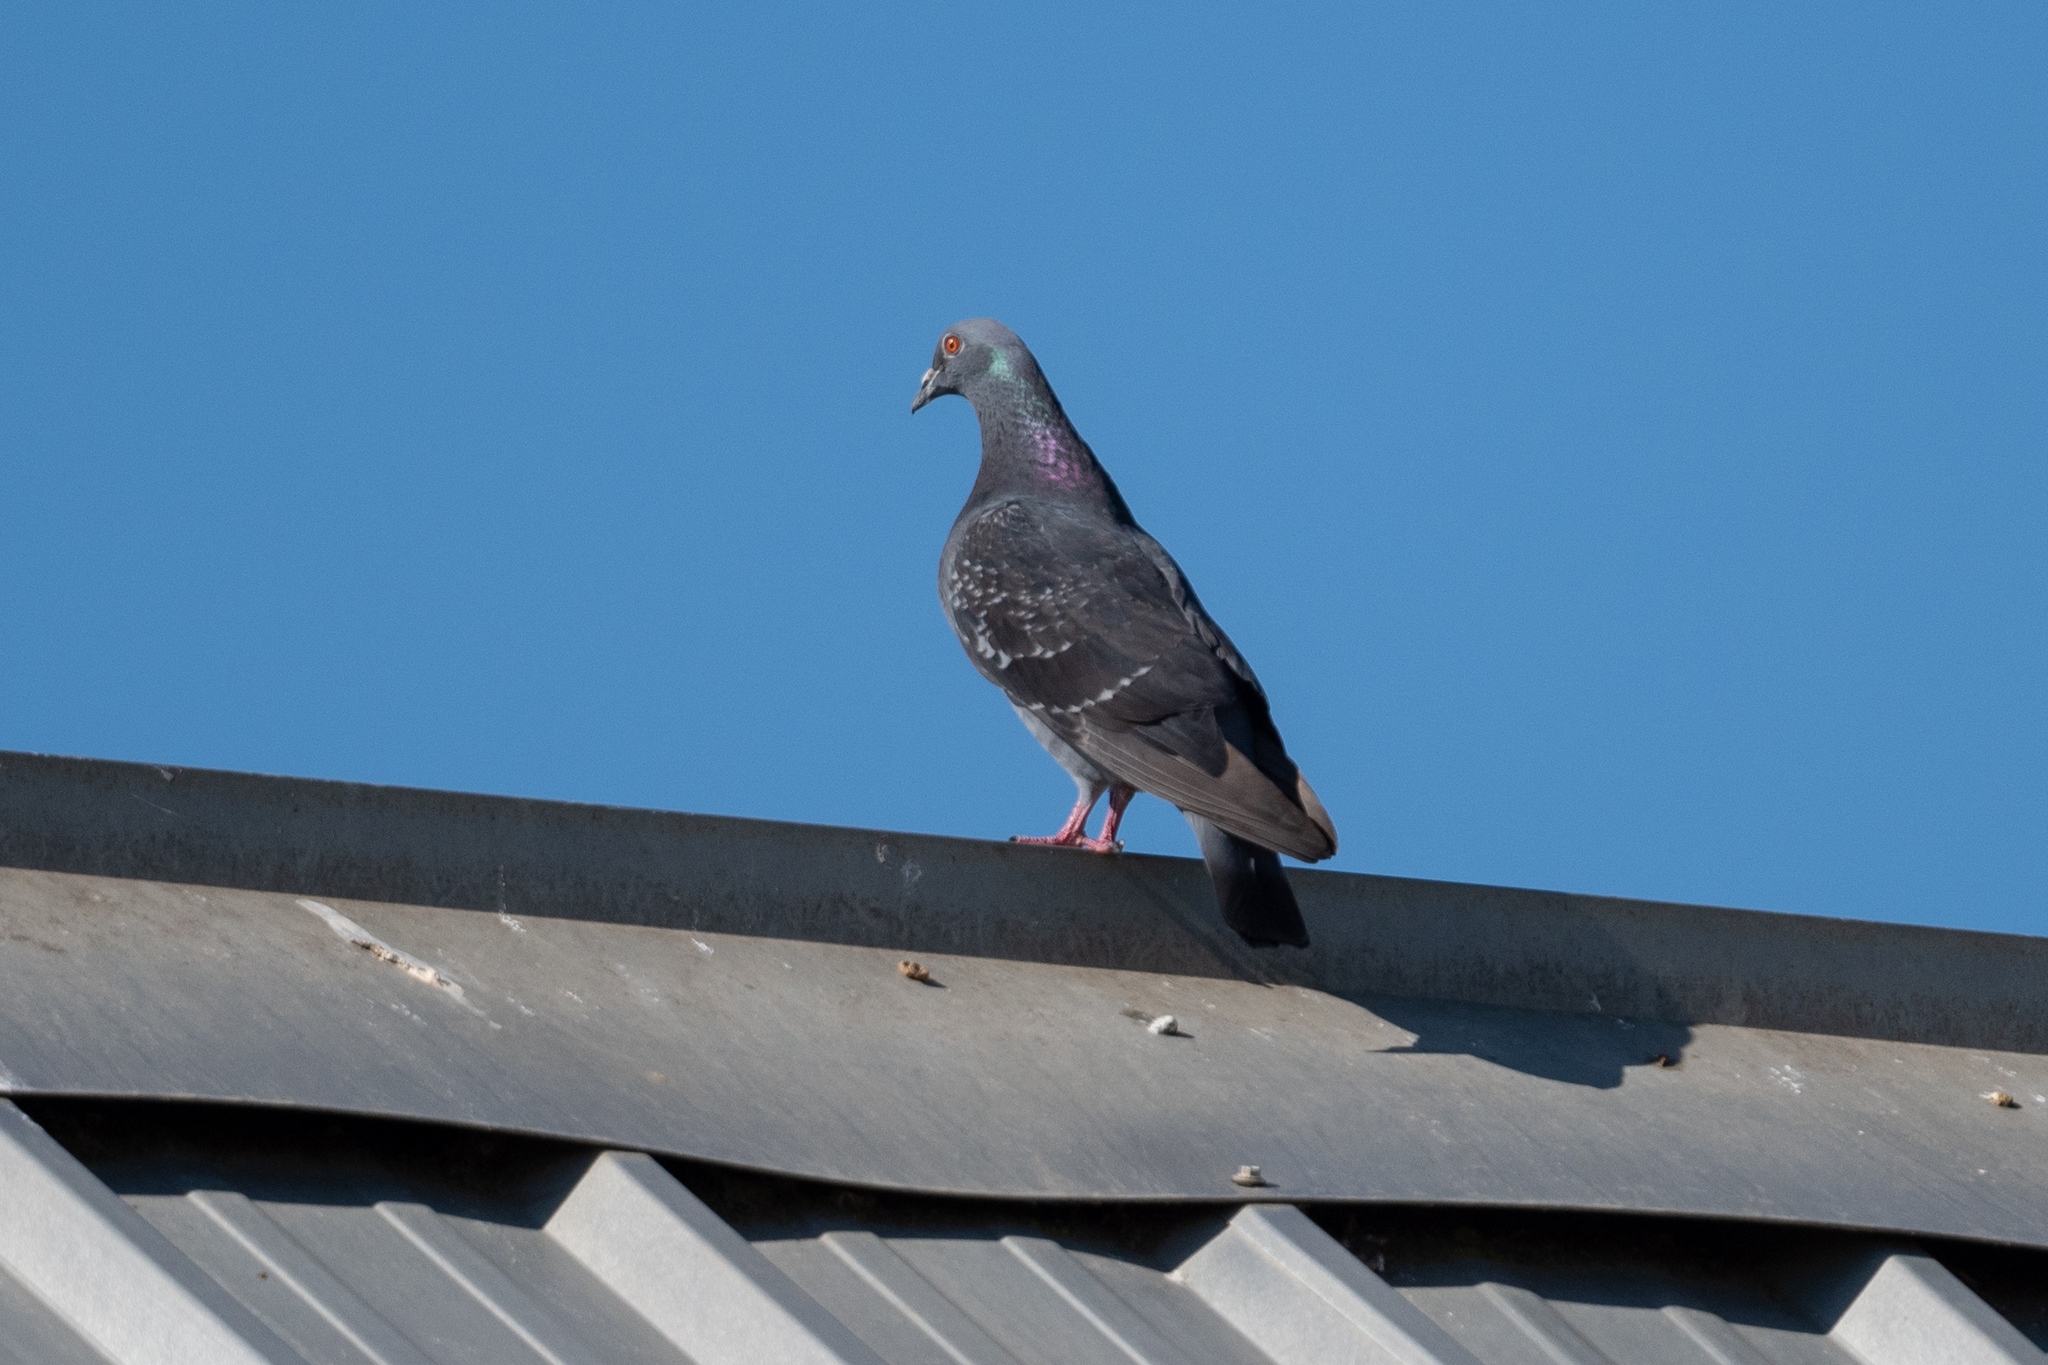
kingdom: Animalia
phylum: Chordata
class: Aves
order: Columbiformes
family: Columbidae
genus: Columba
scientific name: Columba livia
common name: Rock pigeon
